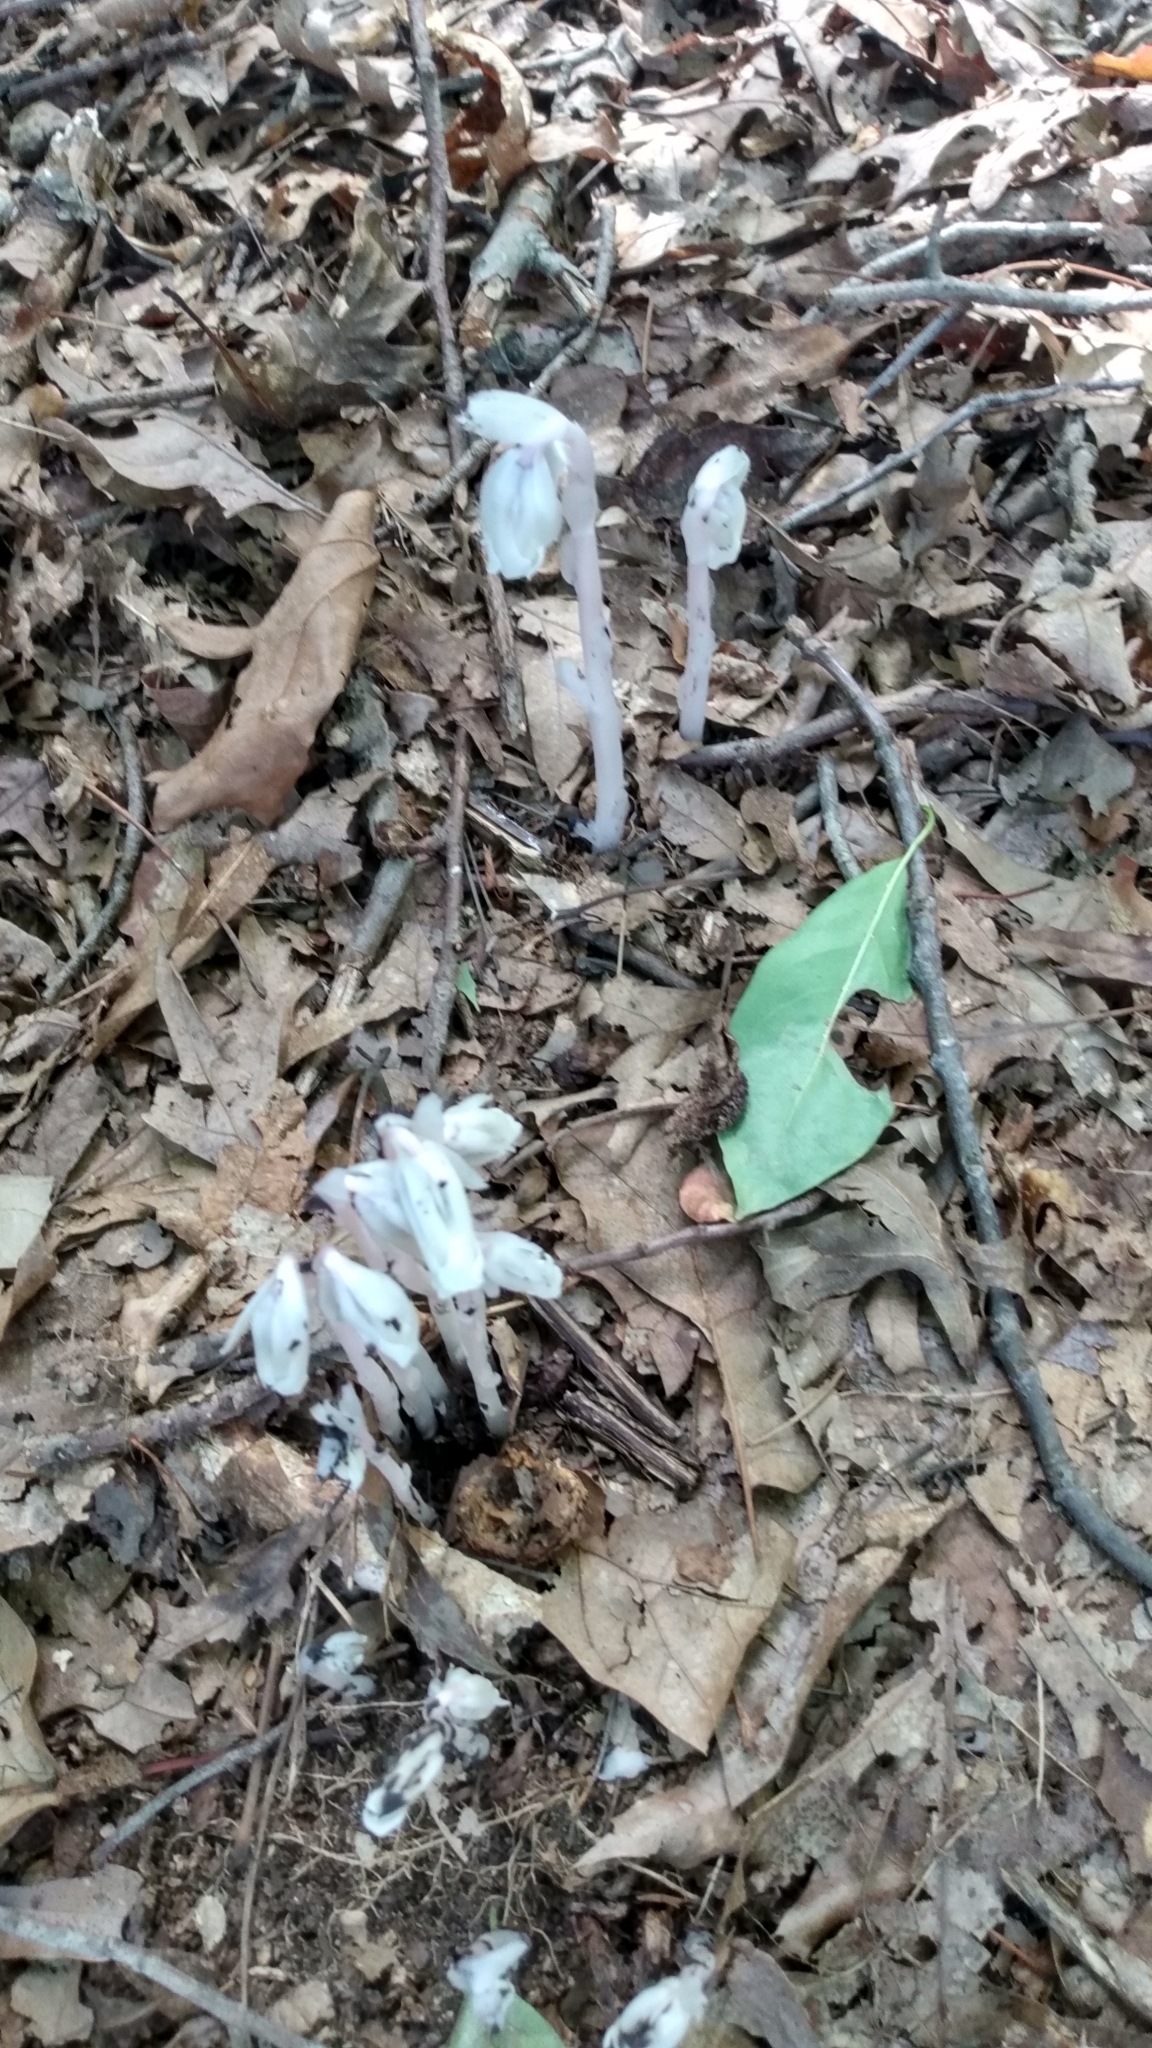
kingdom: Plantae
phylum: Tracheophyta
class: Magnoliopsida
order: Ericales
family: Ericaceae
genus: Monotropa
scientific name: Monotropa uniflora
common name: Convulsion root
